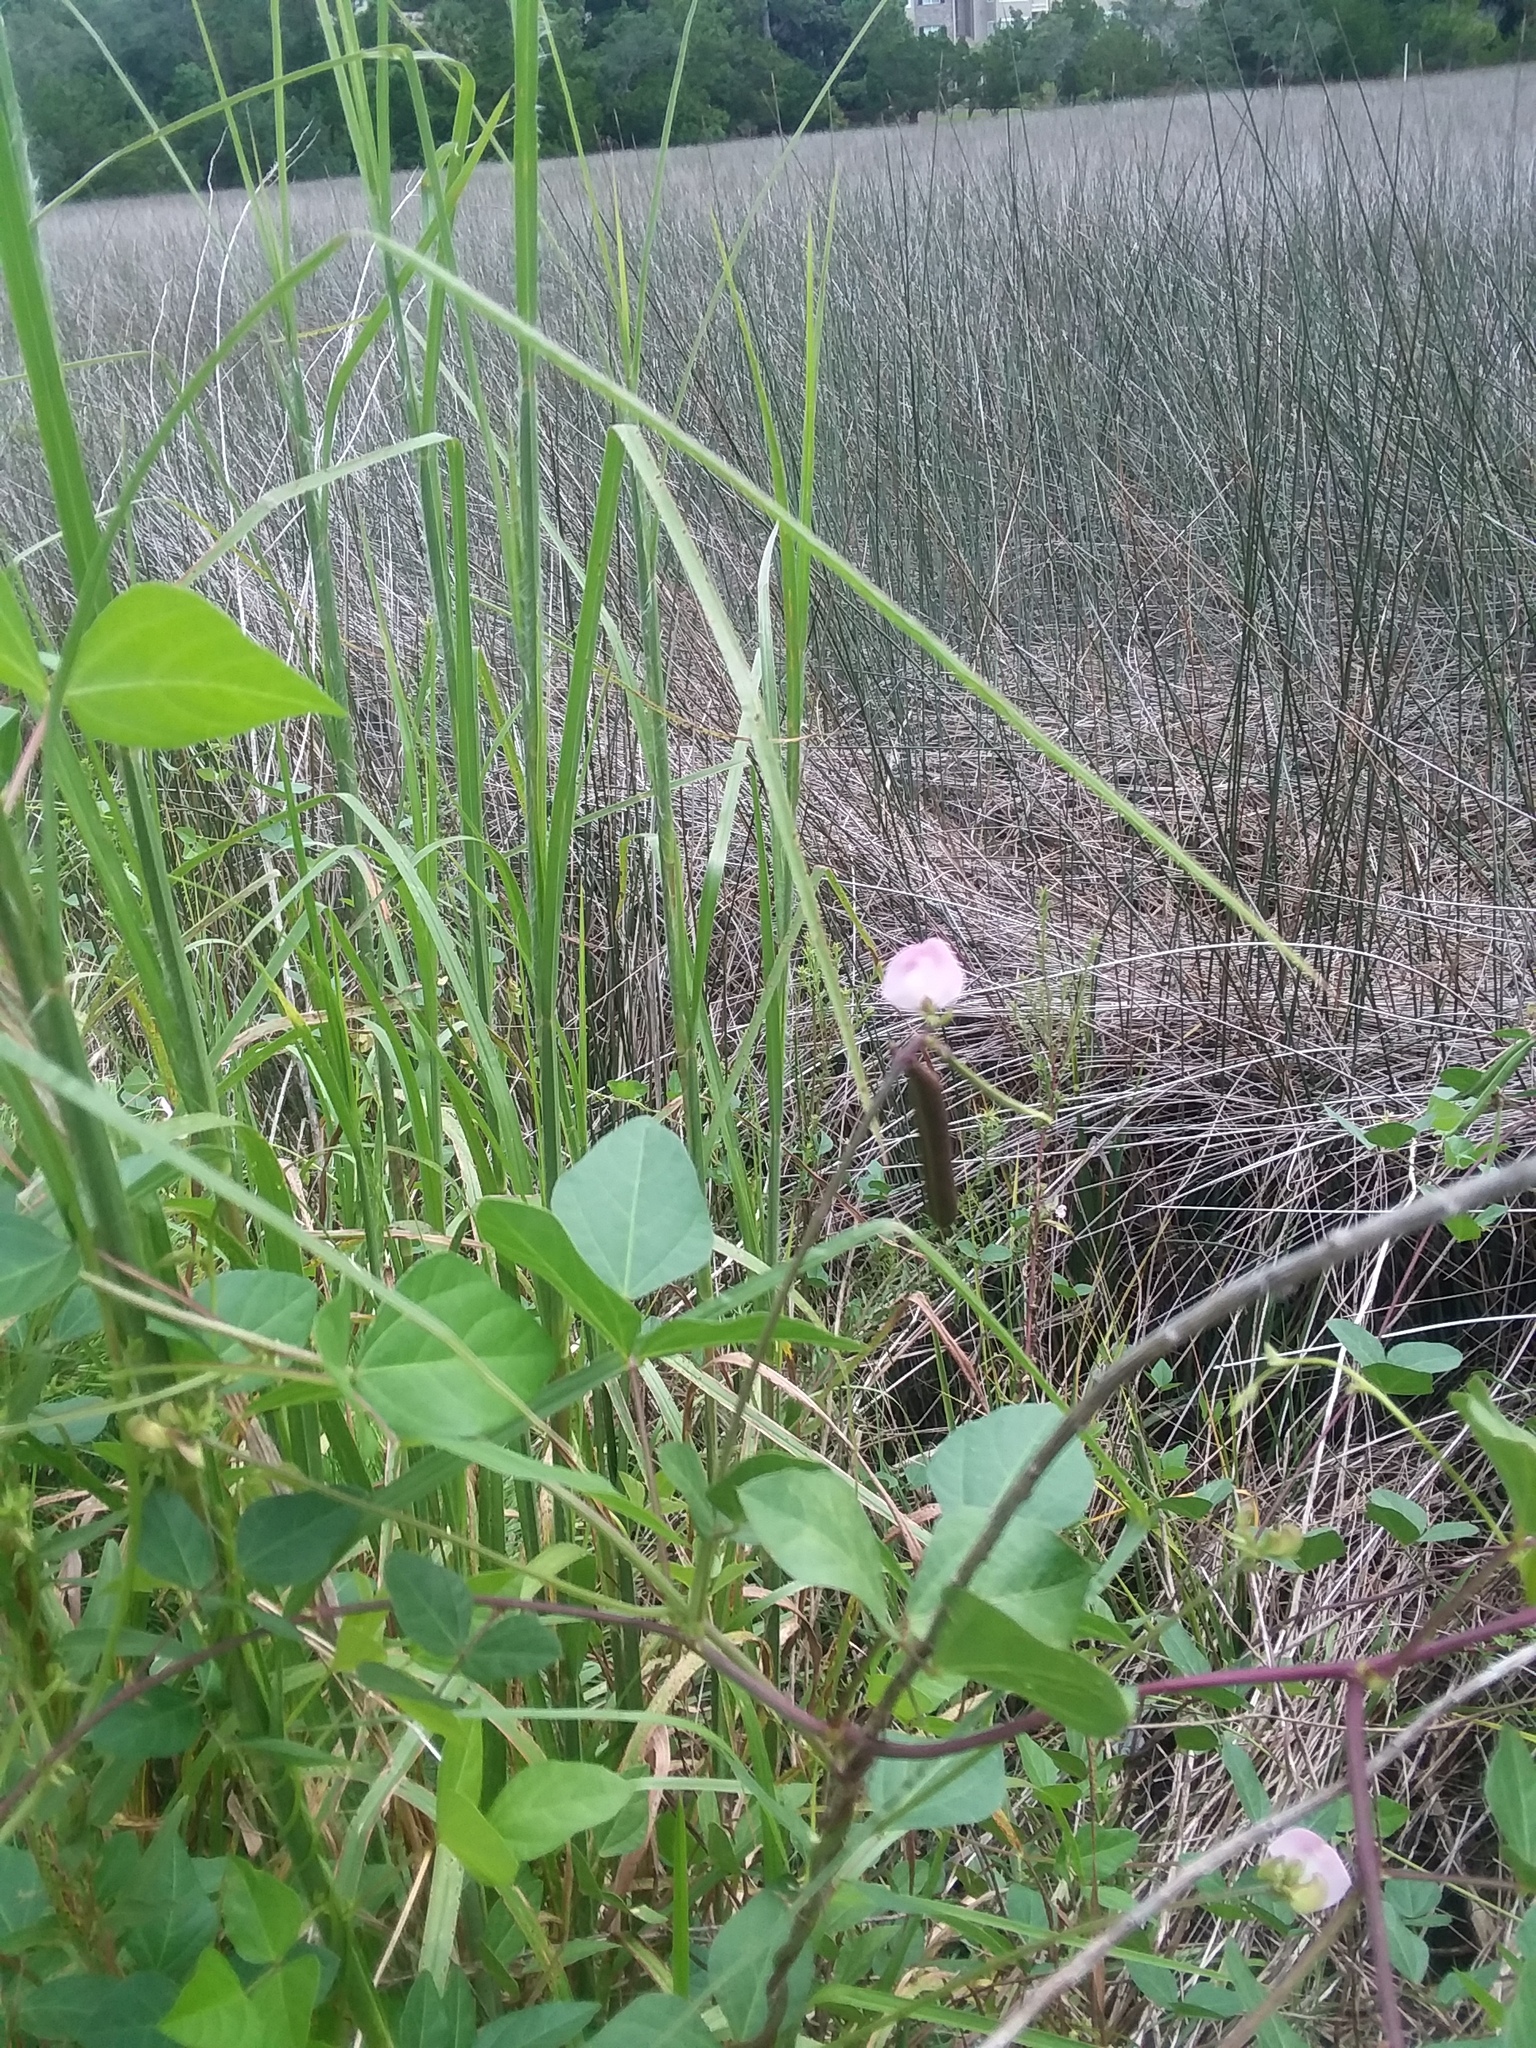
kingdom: Plantae
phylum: Tracheophyta
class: Magnoliopsida
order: Fabales
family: Fabaceae
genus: Strophostyles
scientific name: Strophostyles helvola
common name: Trailing wild bean
